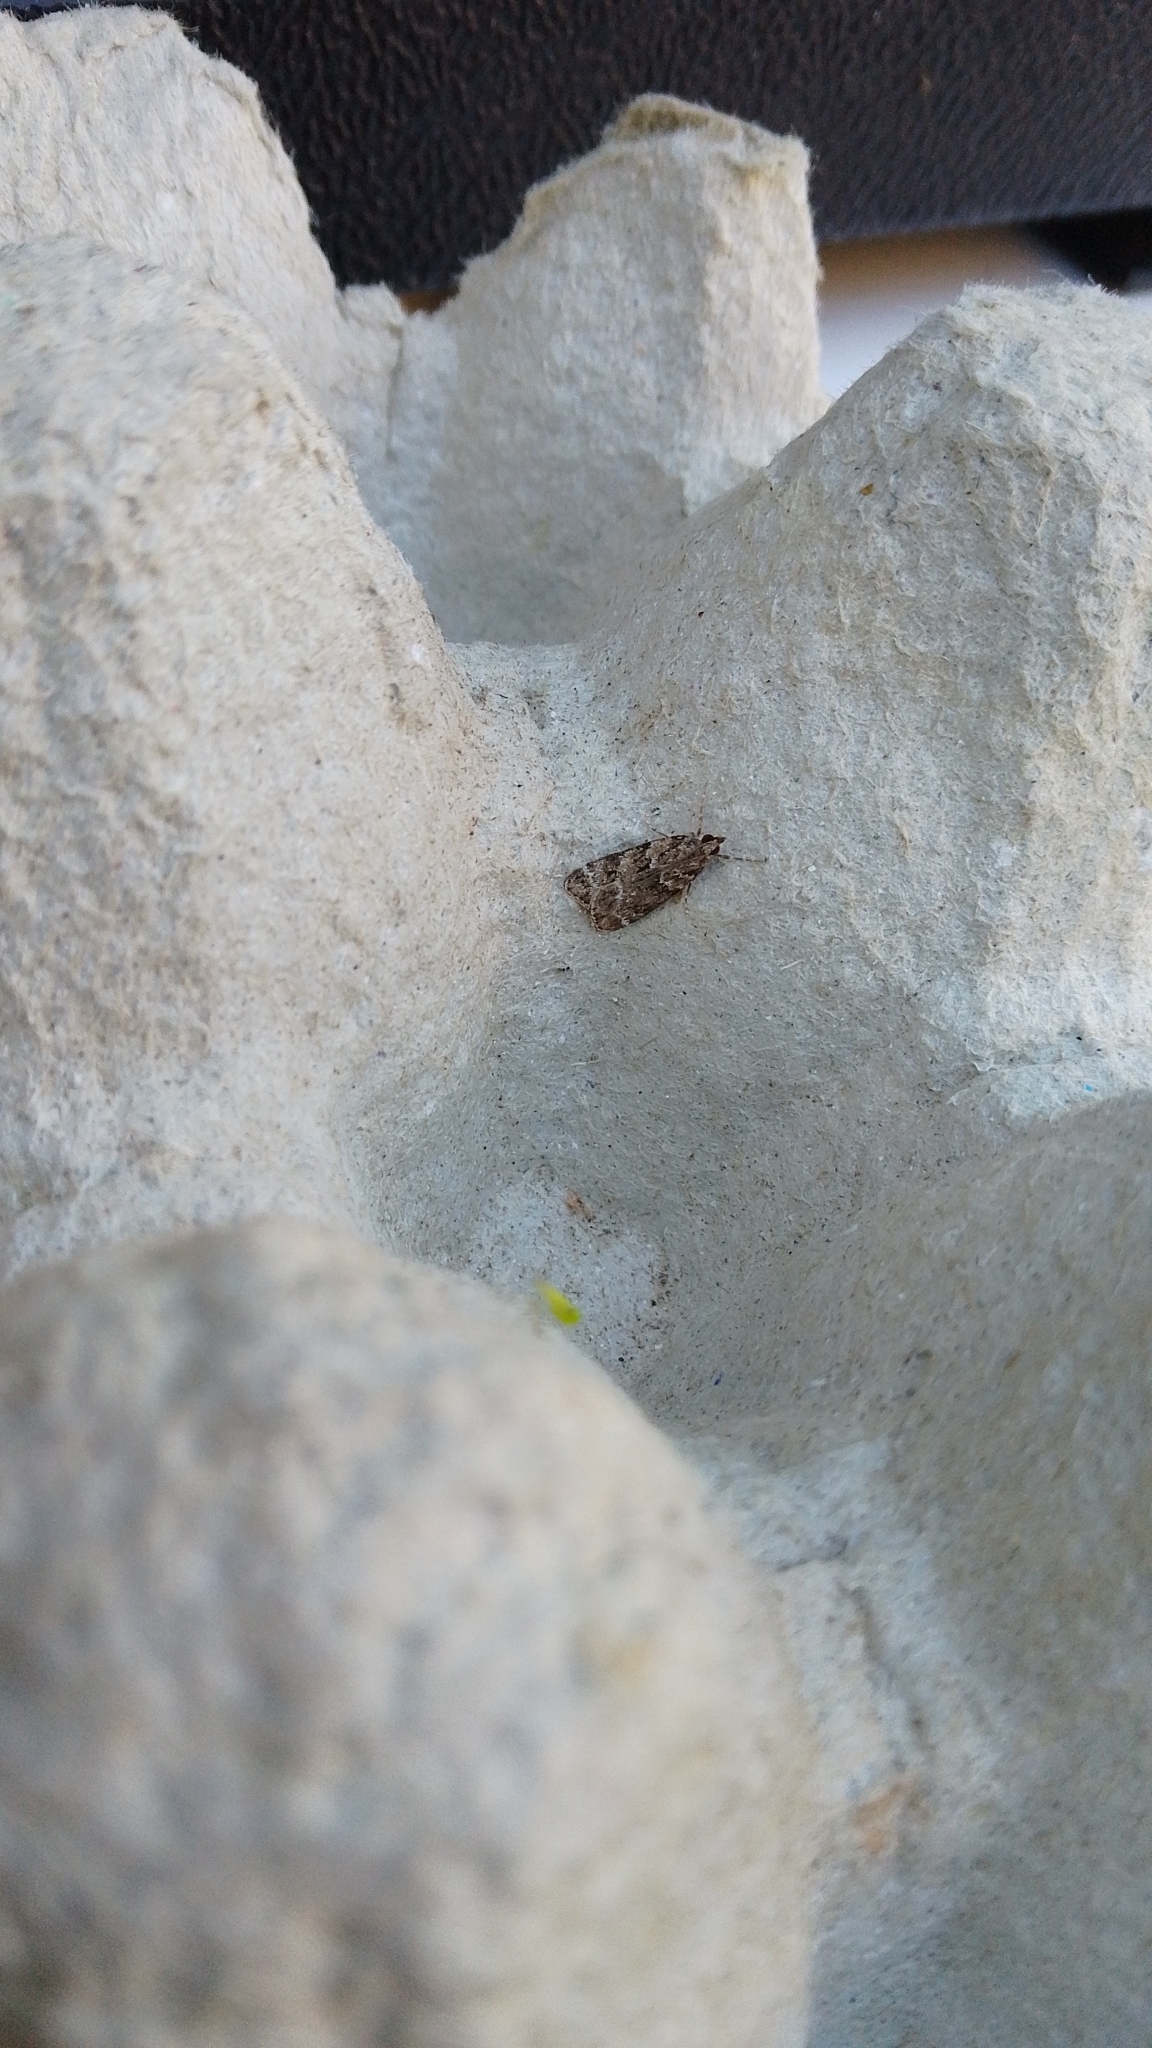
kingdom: Animalia
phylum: Arthropoda
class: Insecta
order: Lepidoptera
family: Crambidae
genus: Eudonia
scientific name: Eudonia mercurella
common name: Small grey
